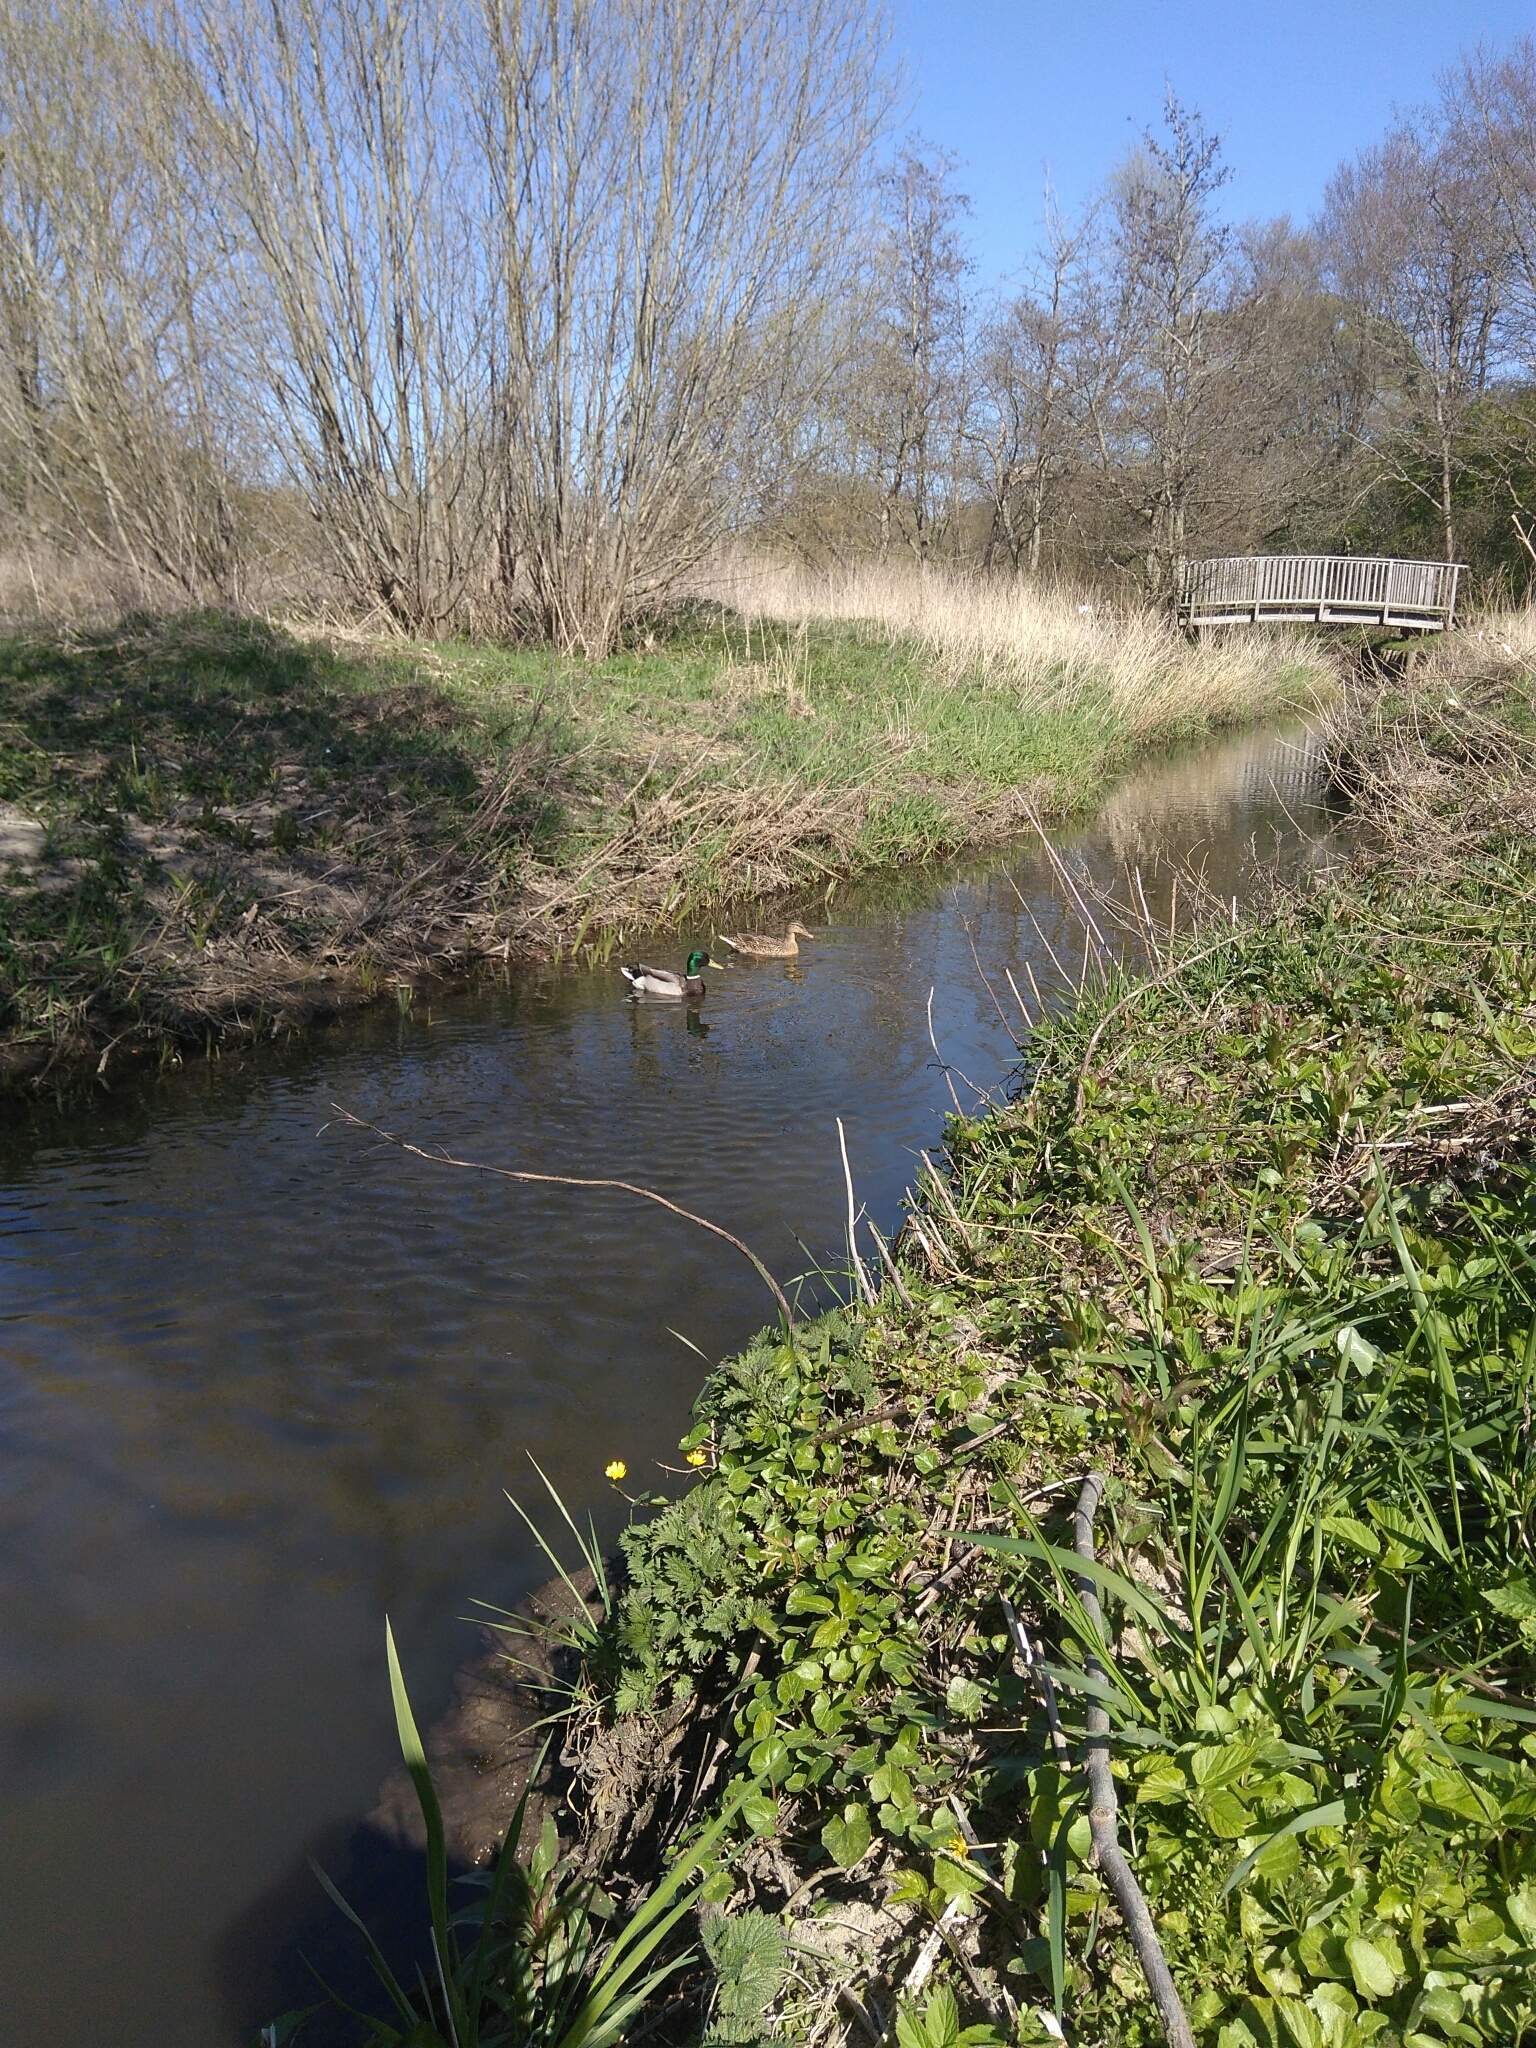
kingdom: Animalia
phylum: Chordata
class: Aves
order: Anseriformes
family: Anatidae
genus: Anas
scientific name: Anas platyrhynchos
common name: Mallard
